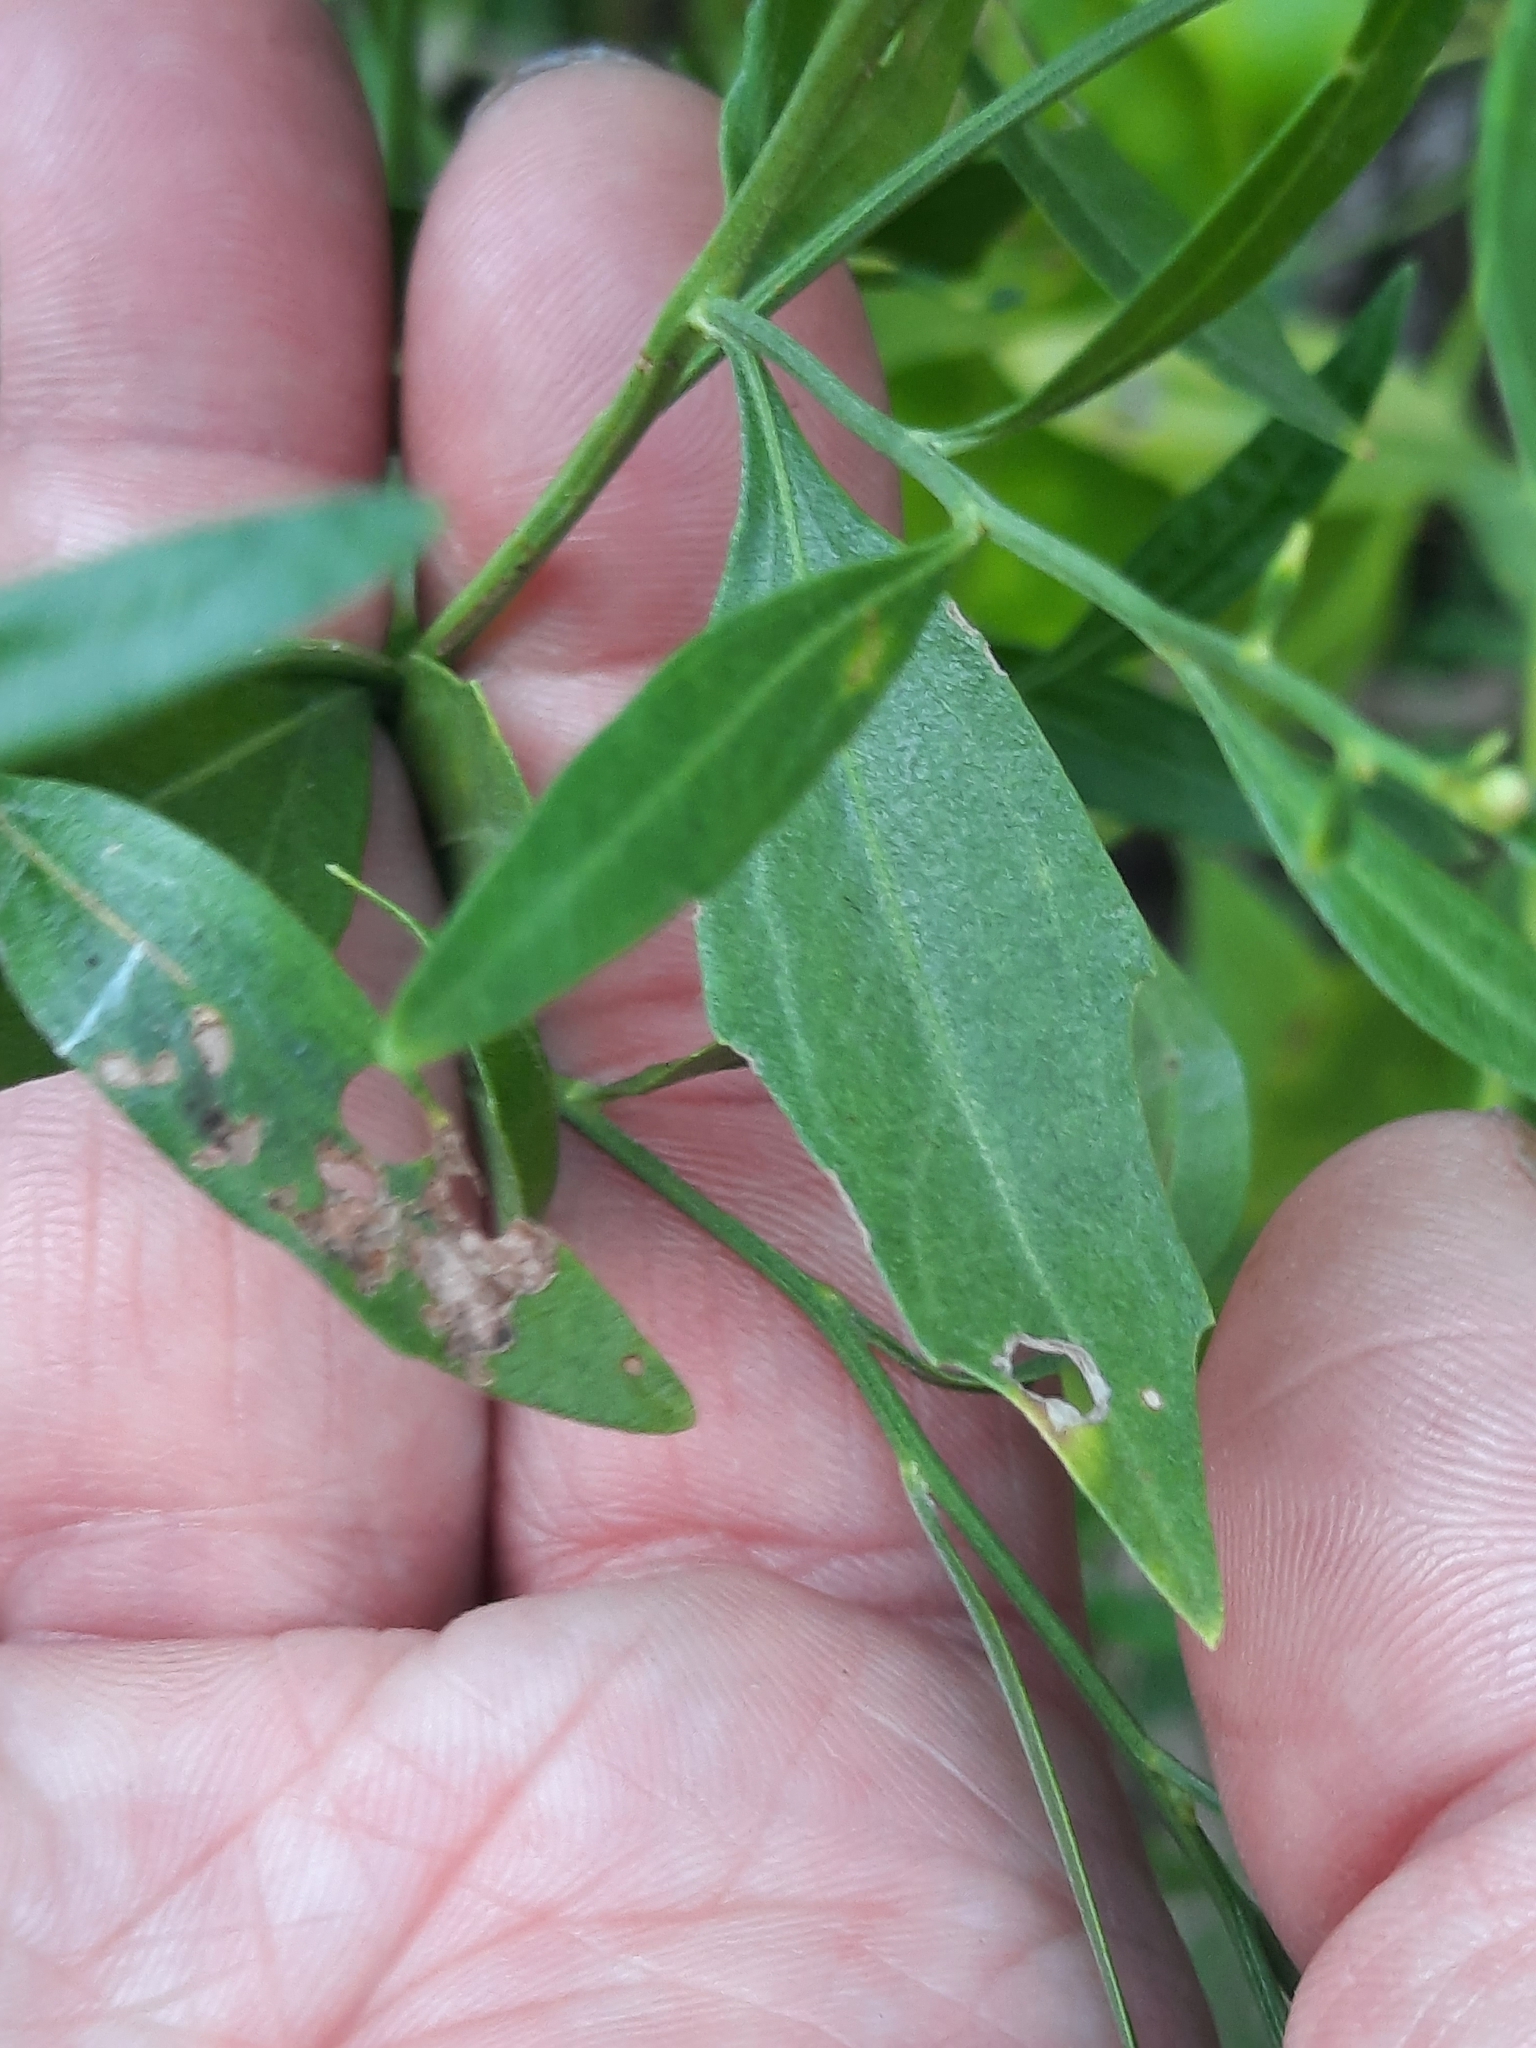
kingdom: Plantae
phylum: Tracheophyta
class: Magnoliopsida
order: Asterales
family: Asteraceae
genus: Baccharis
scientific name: Baccharis halimifolia
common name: Eastern baccharis
